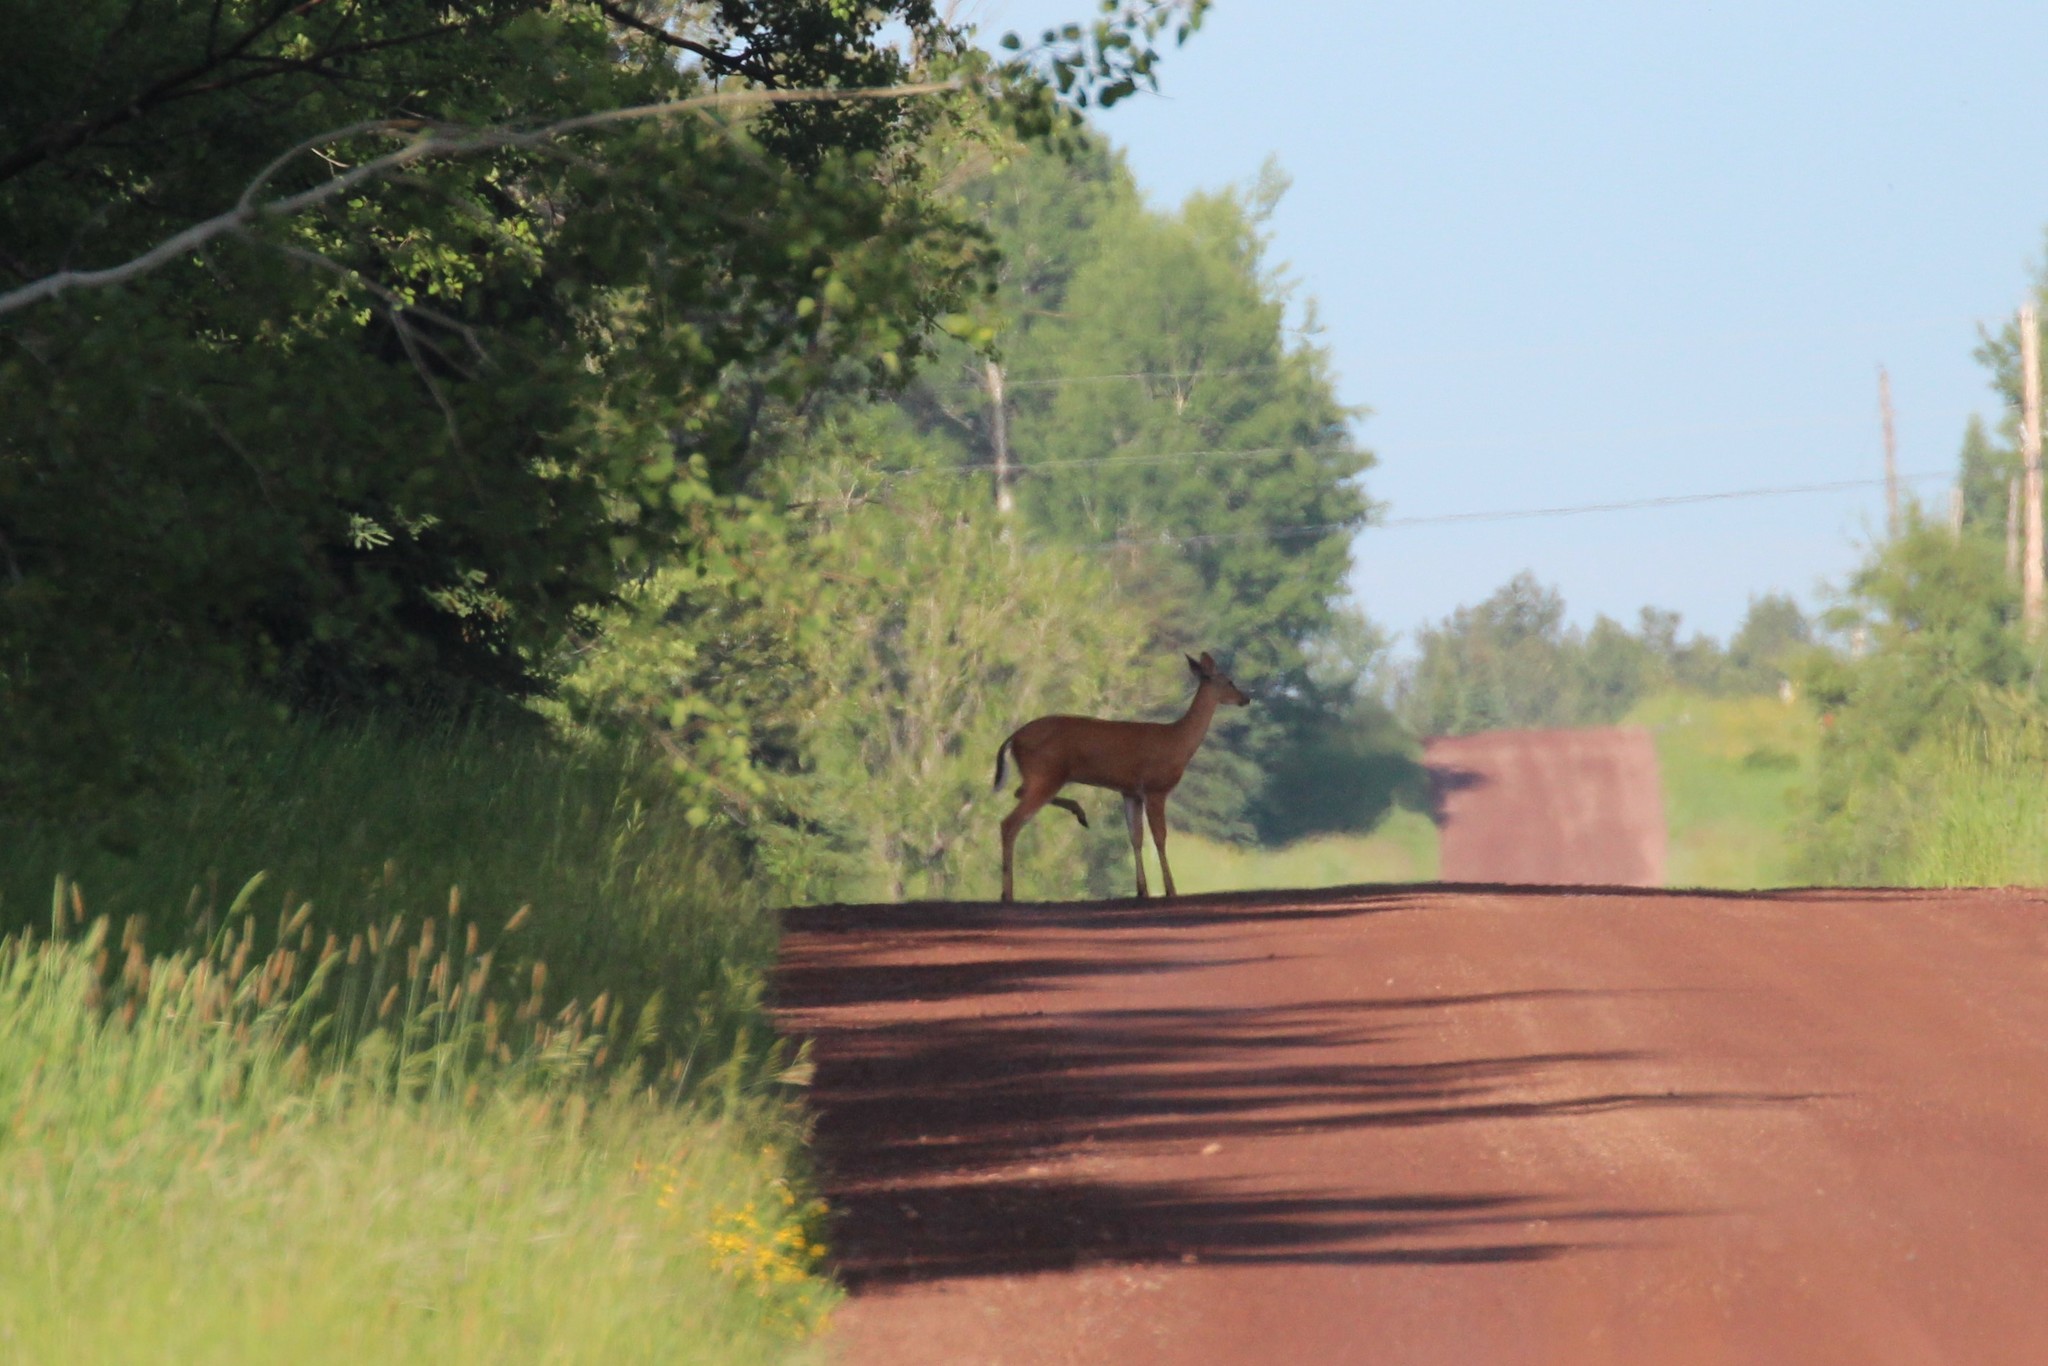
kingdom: Animalia
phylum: Chordata
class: Mammalia
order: Artiodactyla
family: Cervidae
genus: Odocoileus
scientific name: Odocoileus virginianus
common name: White-tailed deer
